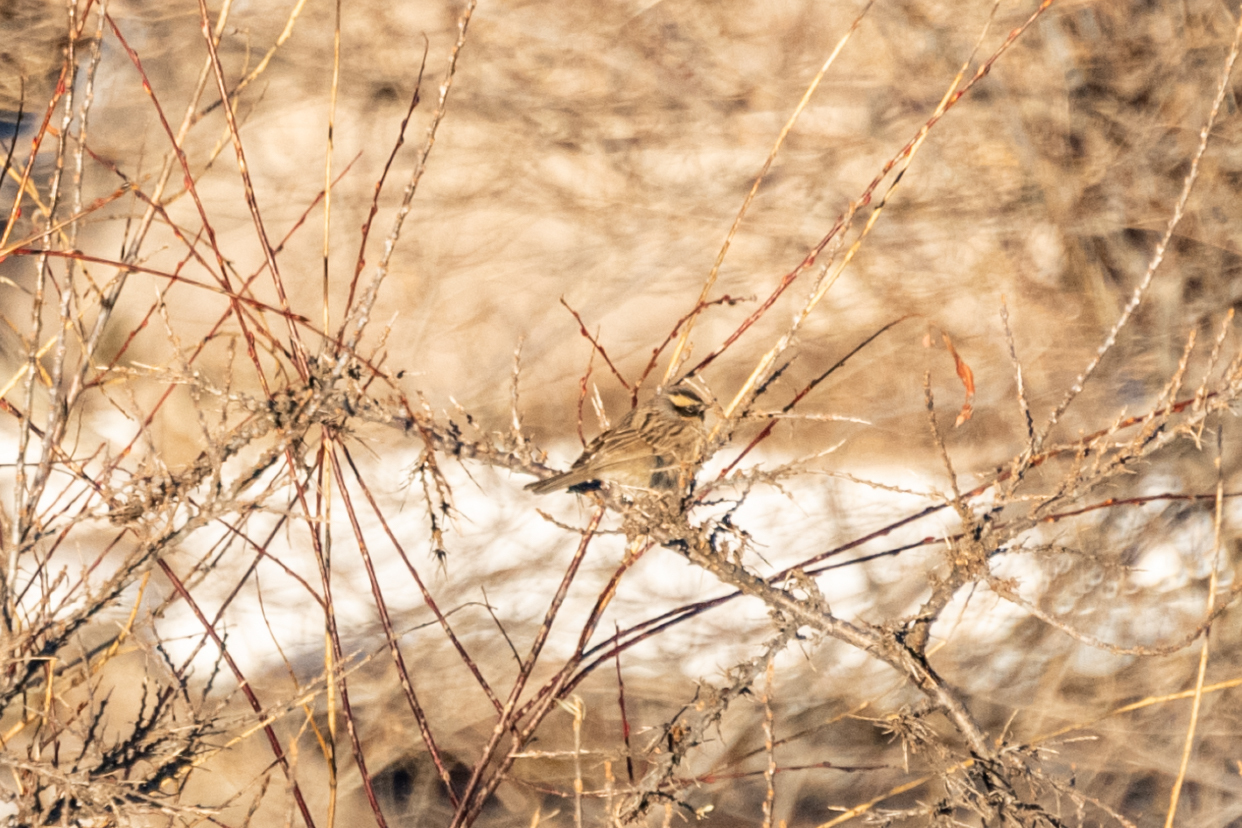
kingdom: Animalia
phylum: Chordata
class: Aves
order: Passeriformes
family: Prunellidae
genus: Prunella
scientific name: Prunella atrogularis
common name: Black-throated accentor
